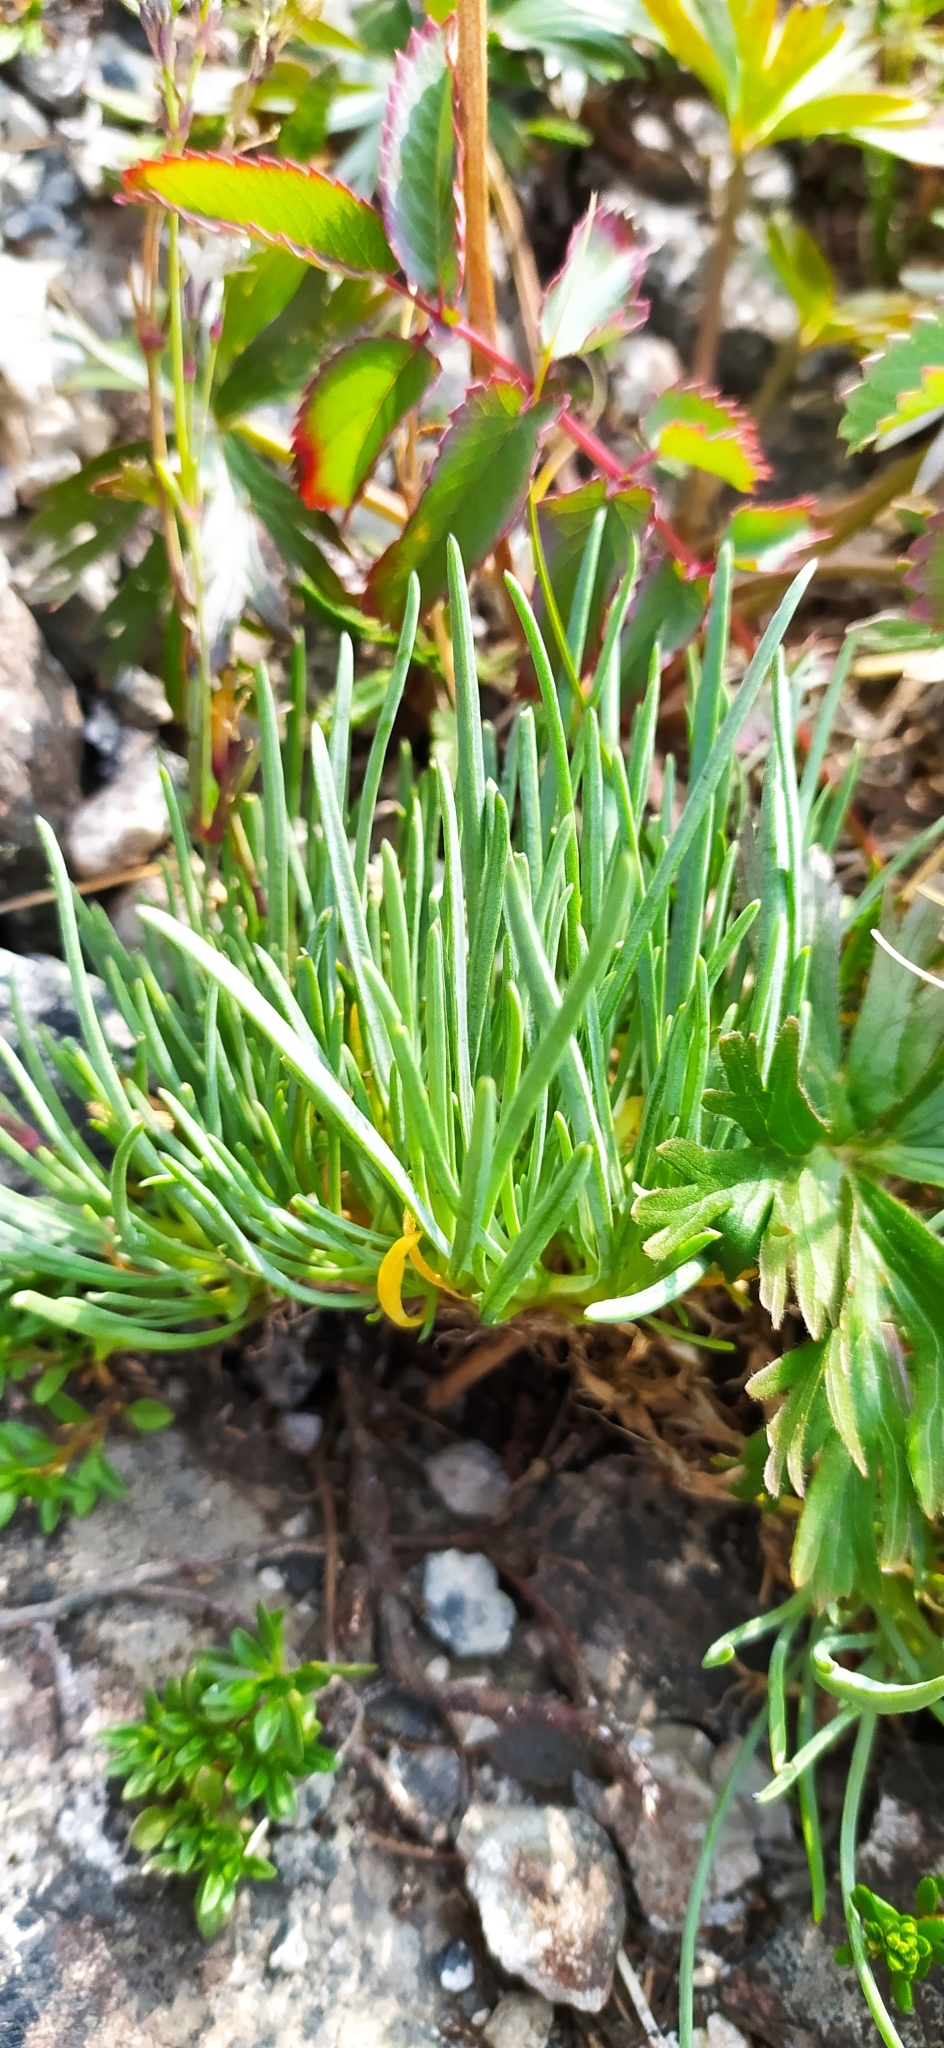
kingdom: Plantae
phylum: Tracheophyta
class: Magnoliopsida
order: Caryophyllales
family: Caryophyllaceae
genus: Gypsophila
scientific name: Gypsophila uralensis
